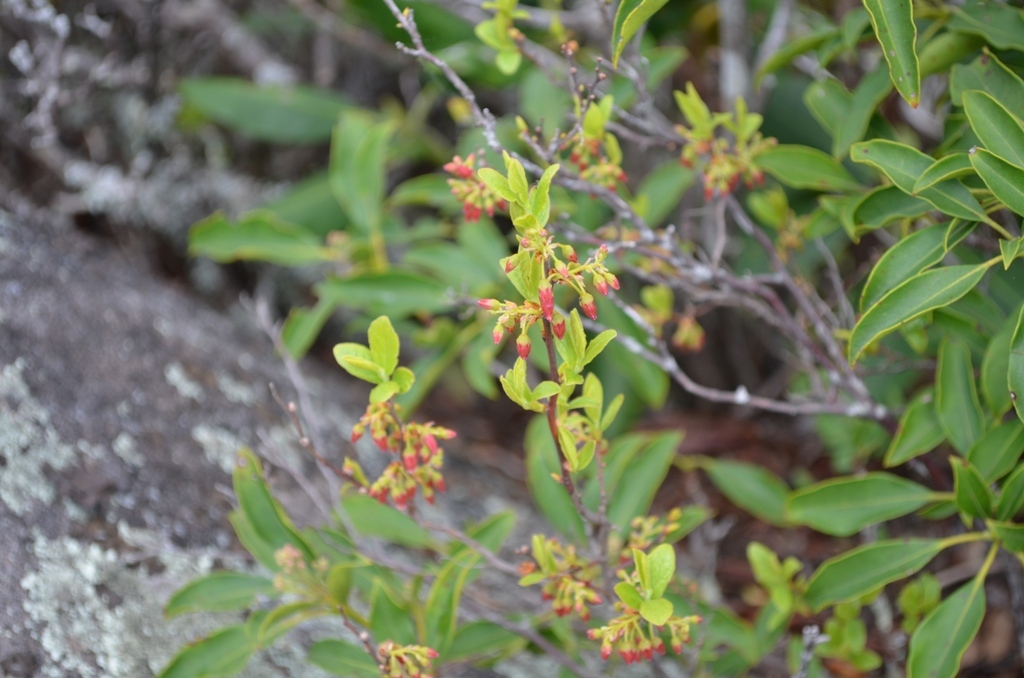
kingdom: Plantae
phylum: Tracheophyta
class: Magnoliopsida
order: Ericales
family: Ericaceae
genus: Gaylussacia
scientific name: Gaylussacia baccata
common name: Black huckleberry
